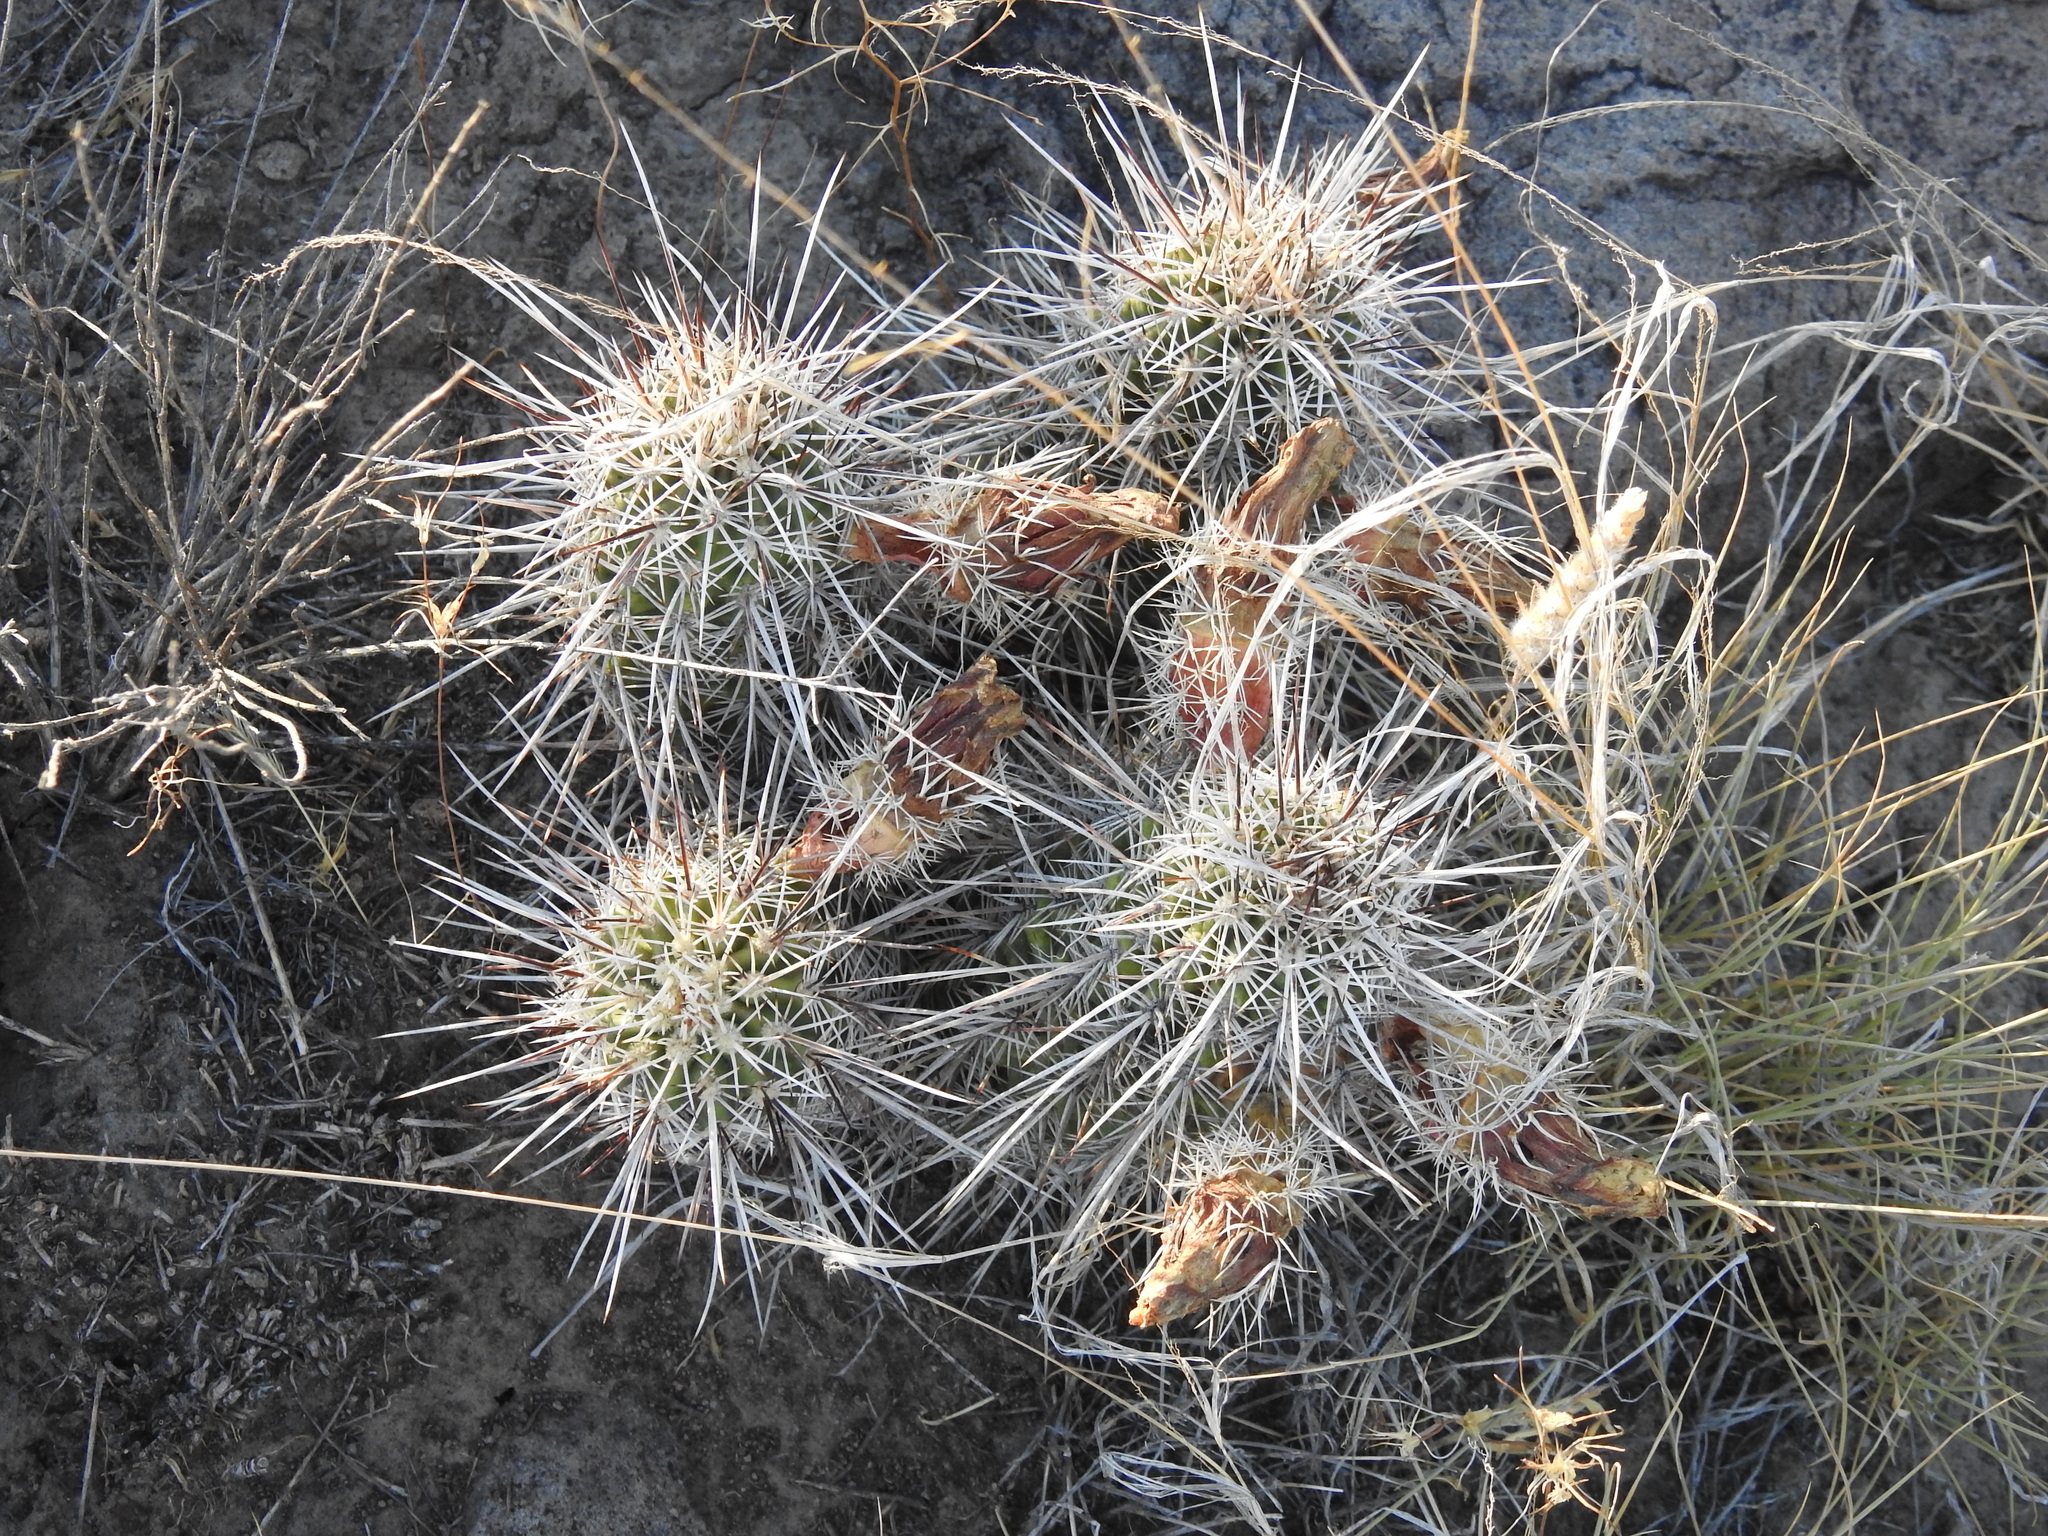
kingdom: Plantae
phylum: Tracheophyta
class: Magnoliopsida
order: Caryophyllales
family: Cactaceae
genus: Echinocereus
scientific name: Echinocereus fasciculatus
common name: Bundle hedgehog
